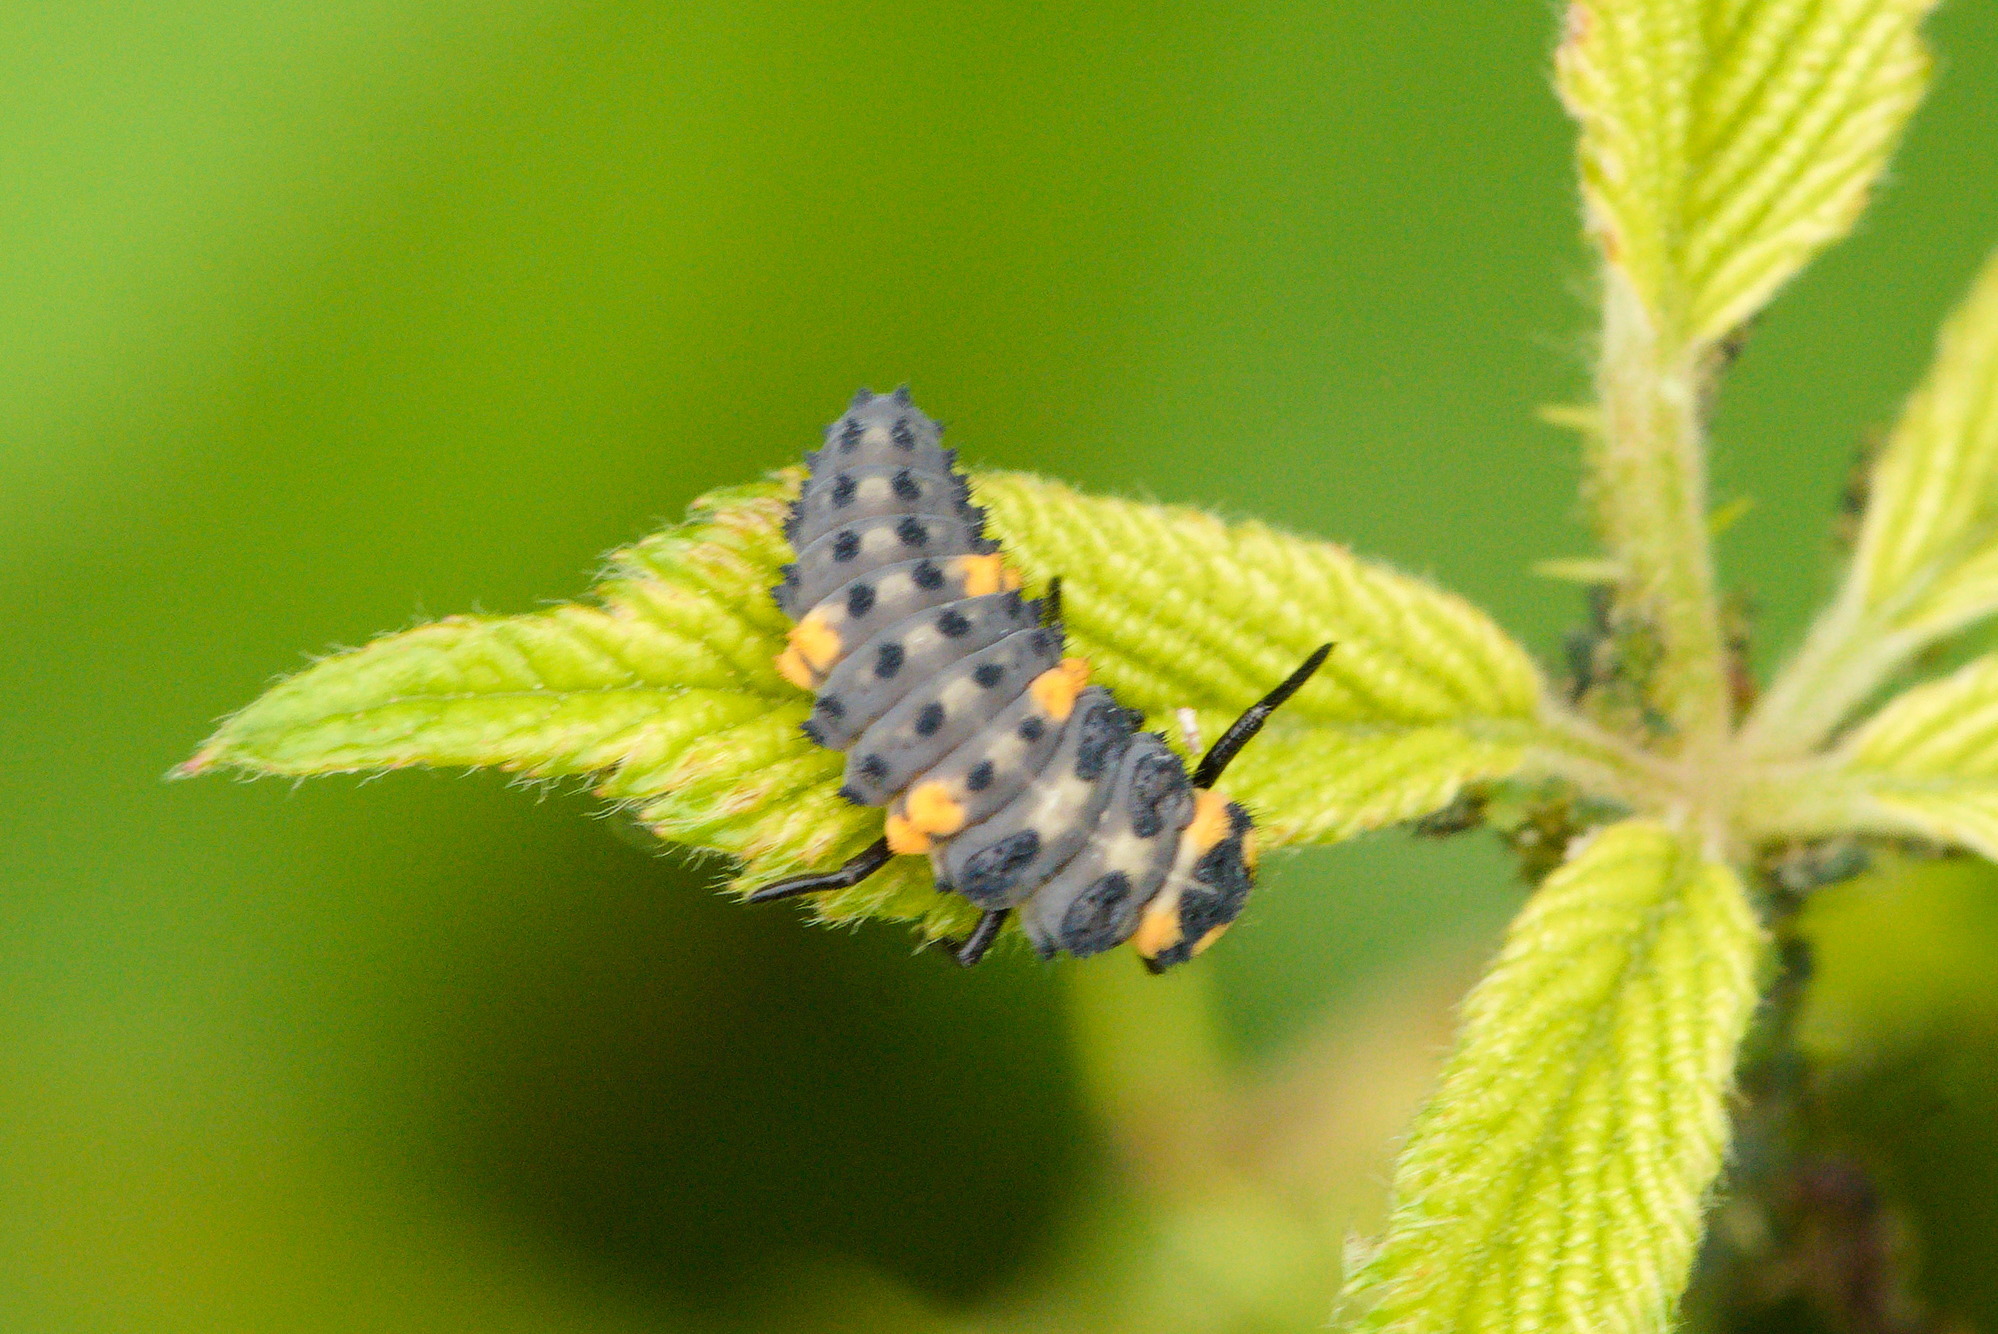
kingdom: Animalia
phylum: Arthropoda
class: Insecta
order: Coleoptera
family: Coccinellidae
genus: Coccinella
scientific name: Coccinella septempunctata
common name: Sevenspotted lady beetle
